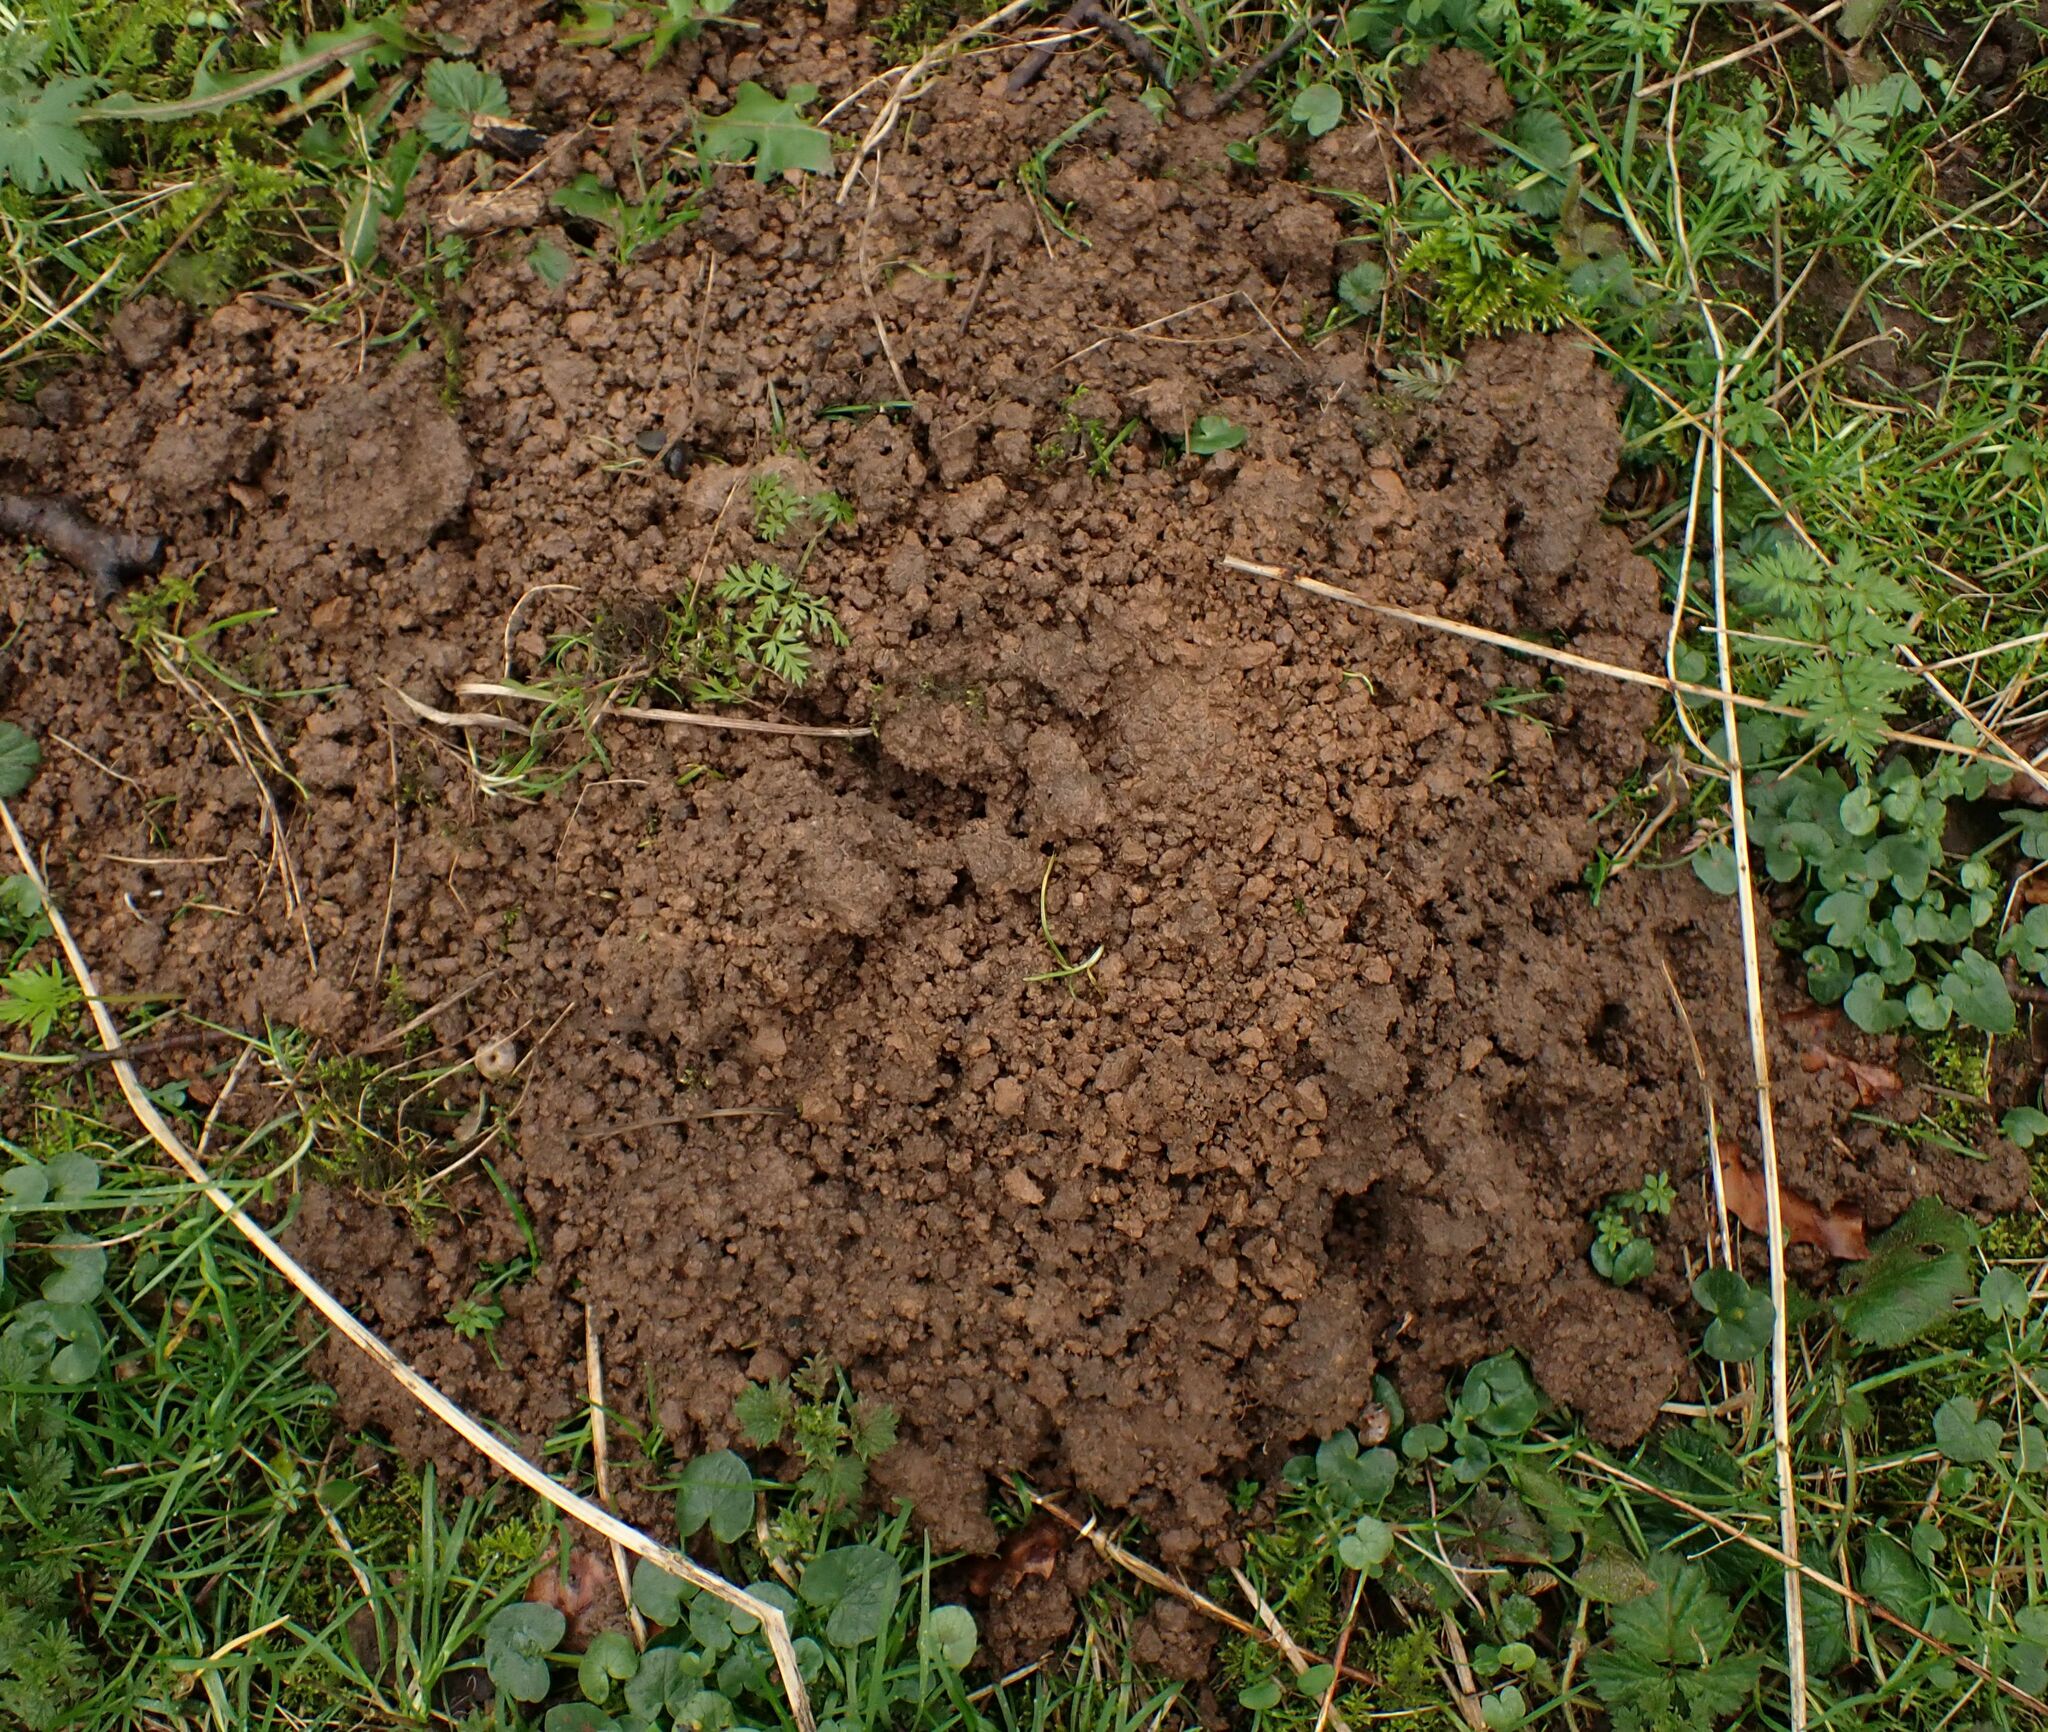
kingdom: Animalia
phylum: Chordata
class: Mammalia
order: Soricomorpha
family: Talpidae
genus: Talpa
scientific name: Talpa europaea
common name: European mole
